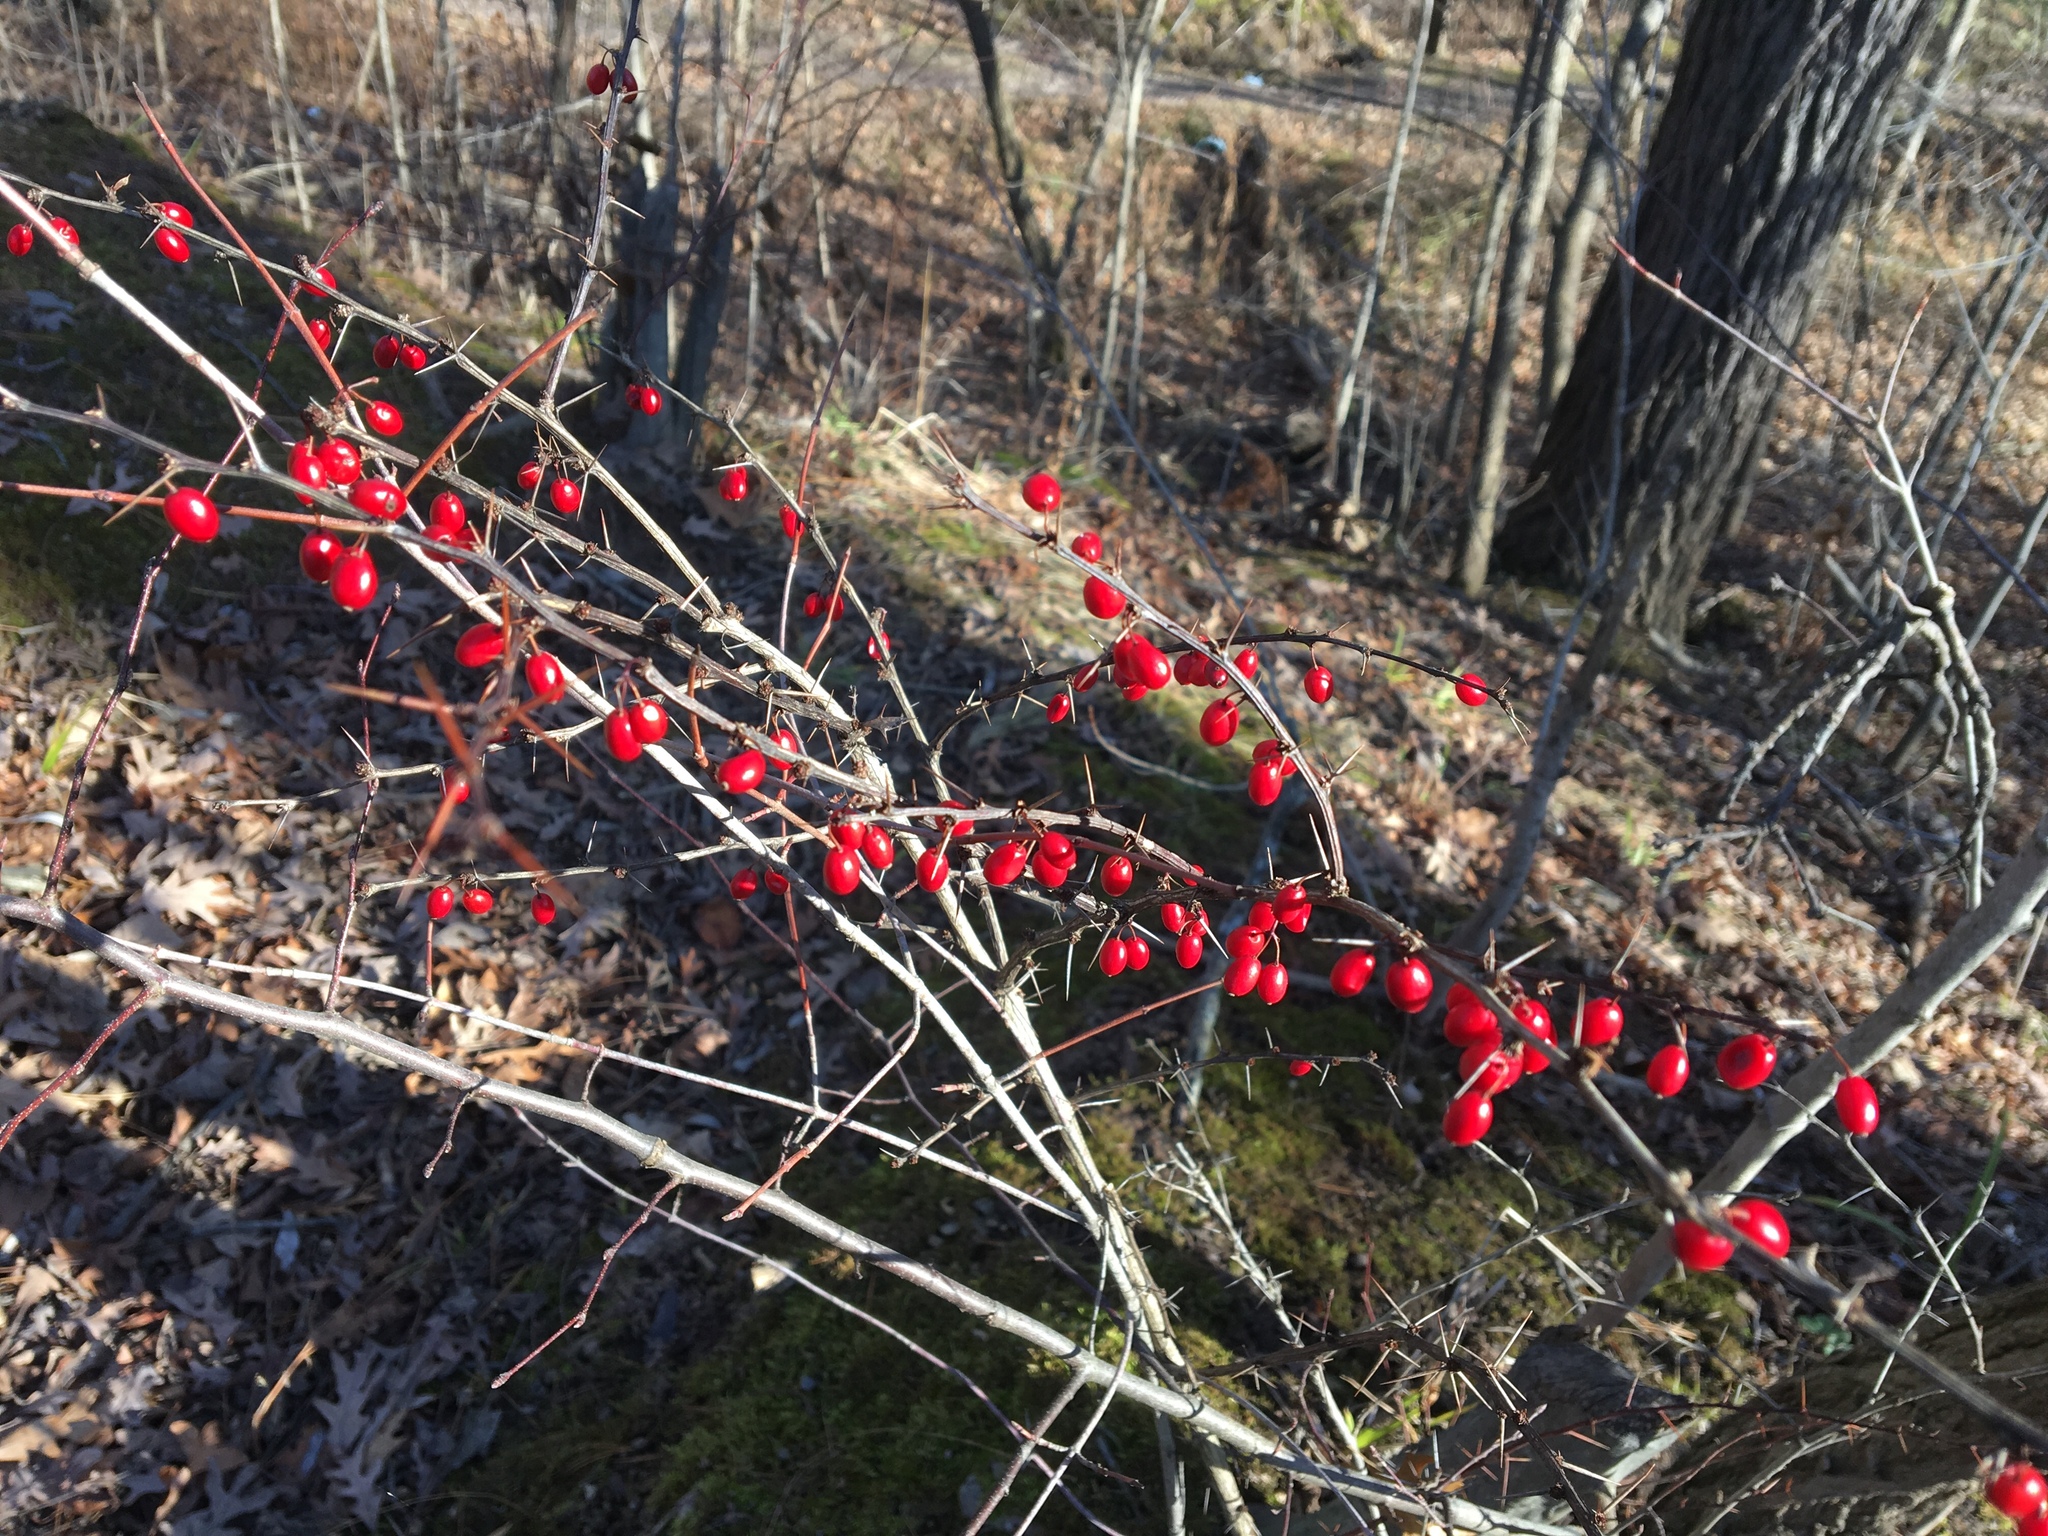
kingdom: Plantae
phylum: Tracheophyta
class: Magnoliopsida
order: Ranunculales
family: Berberidaceae
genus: Berberis
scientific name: Berberis thunbergii
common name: Japanese barberry
